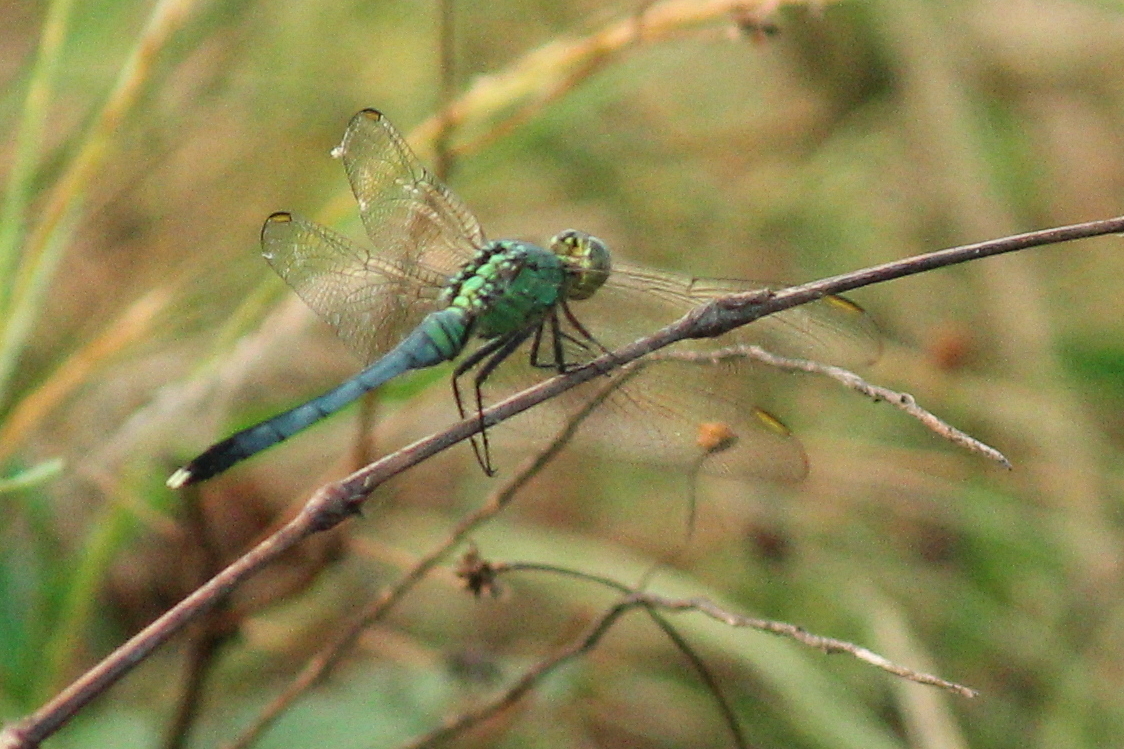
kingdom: Animalia
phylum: Arthropoda
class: Insecta
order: Odonata
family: Libellulidae
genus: Erythemis
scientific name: Erythemis simplicicollis
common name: Eastern pondhawk
